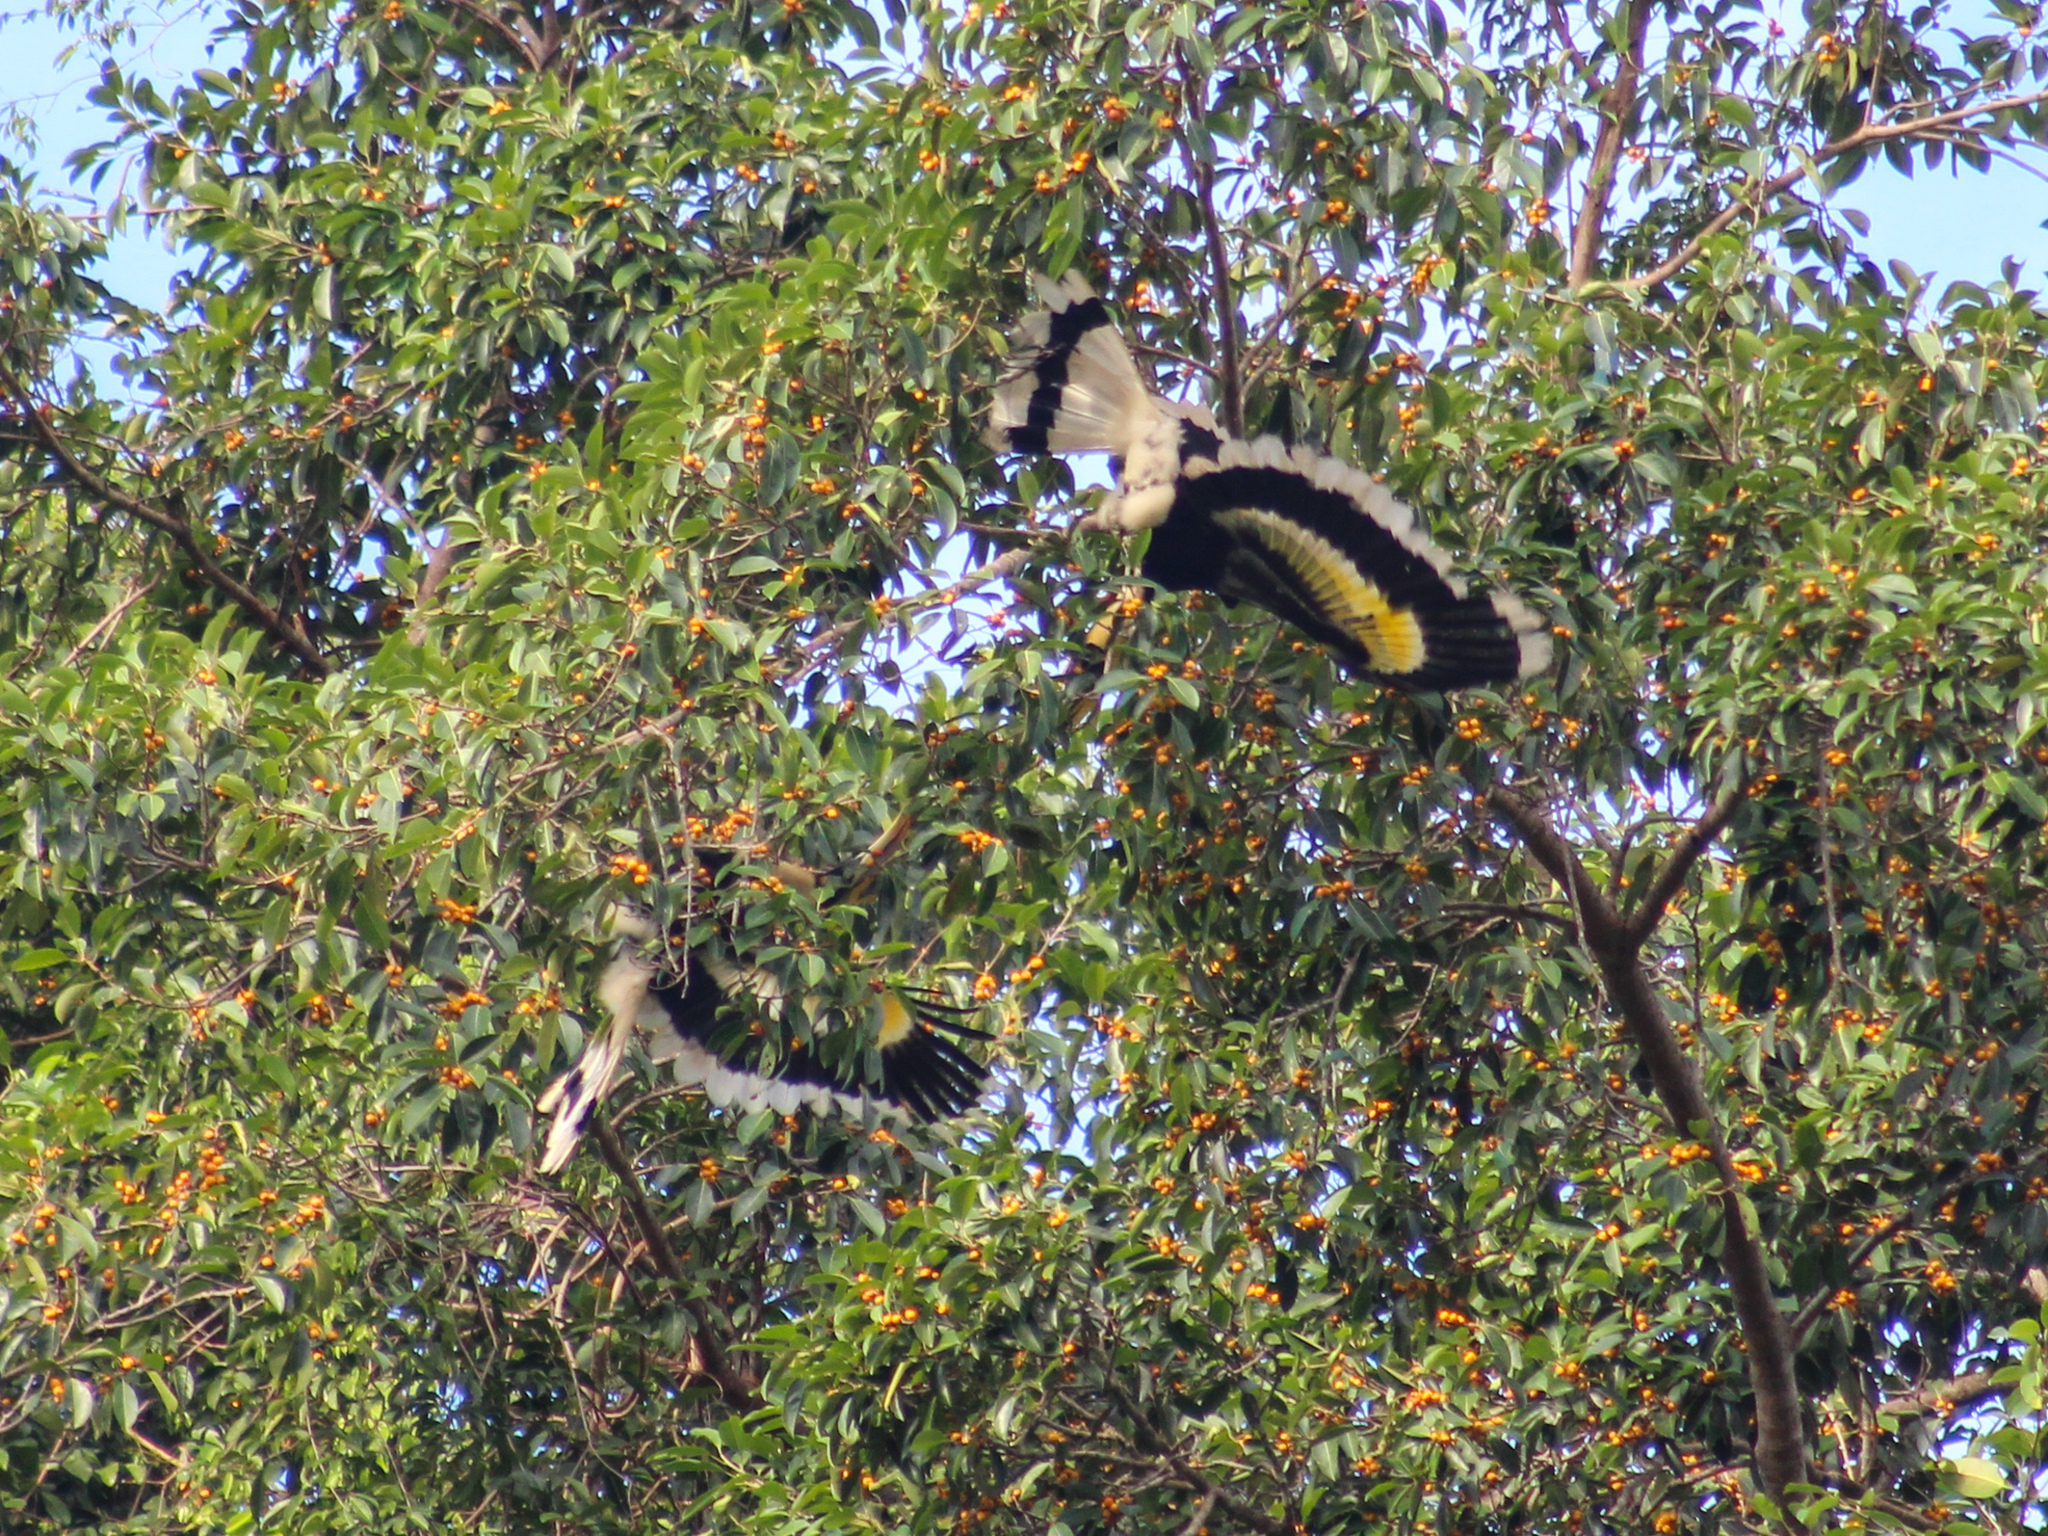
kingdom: Animalia
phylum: Chordata
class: Aves
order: Bucerotiformes
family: Bucerotidae
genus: Buceros
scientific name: Buceros bicornis
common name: Great hornbill
